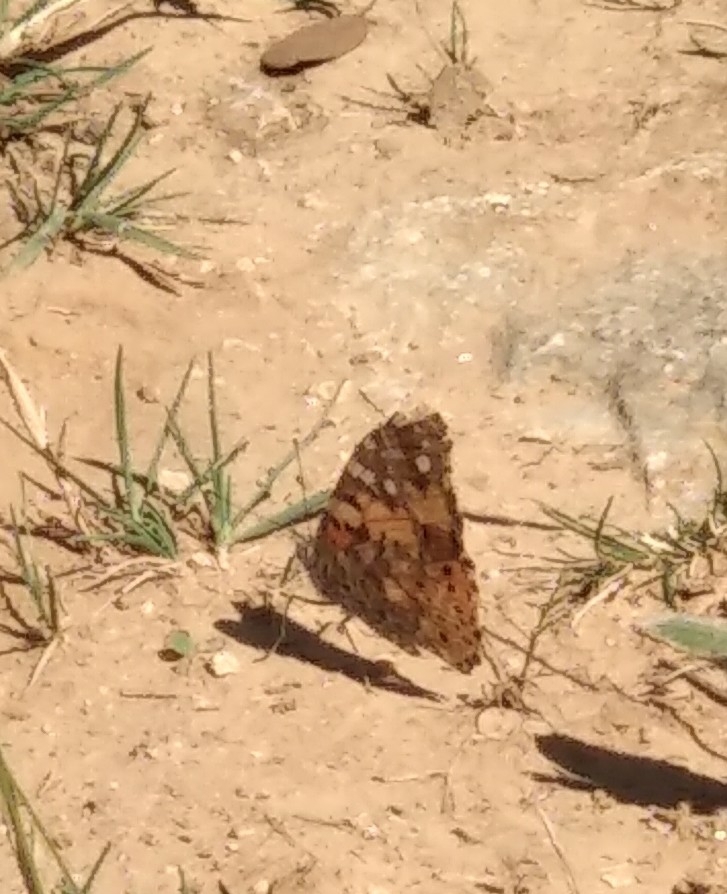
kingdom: Animalia
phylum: Arthropoda
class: Insecta
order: Lepidoptera
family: Nymphalidae
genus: Vanessa
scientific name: Vanessa cardui
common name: Painted lady
